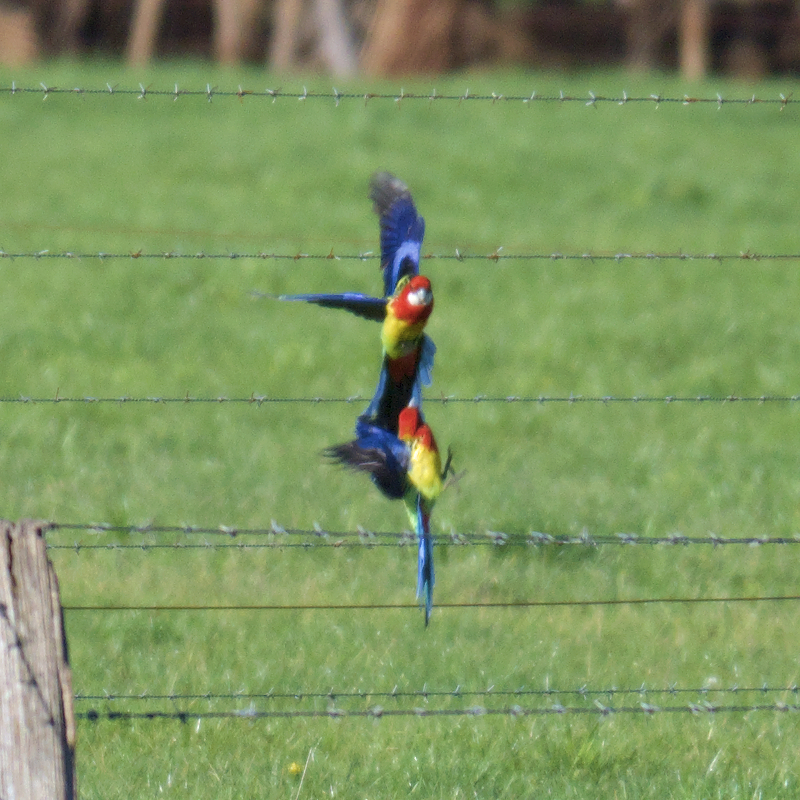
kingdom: Animalia
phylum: Chordata
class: Aves
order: Psittaciformes
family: Psittacidae
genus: Platycercus
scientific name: Platycercus eximius
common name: Eastern rosella
